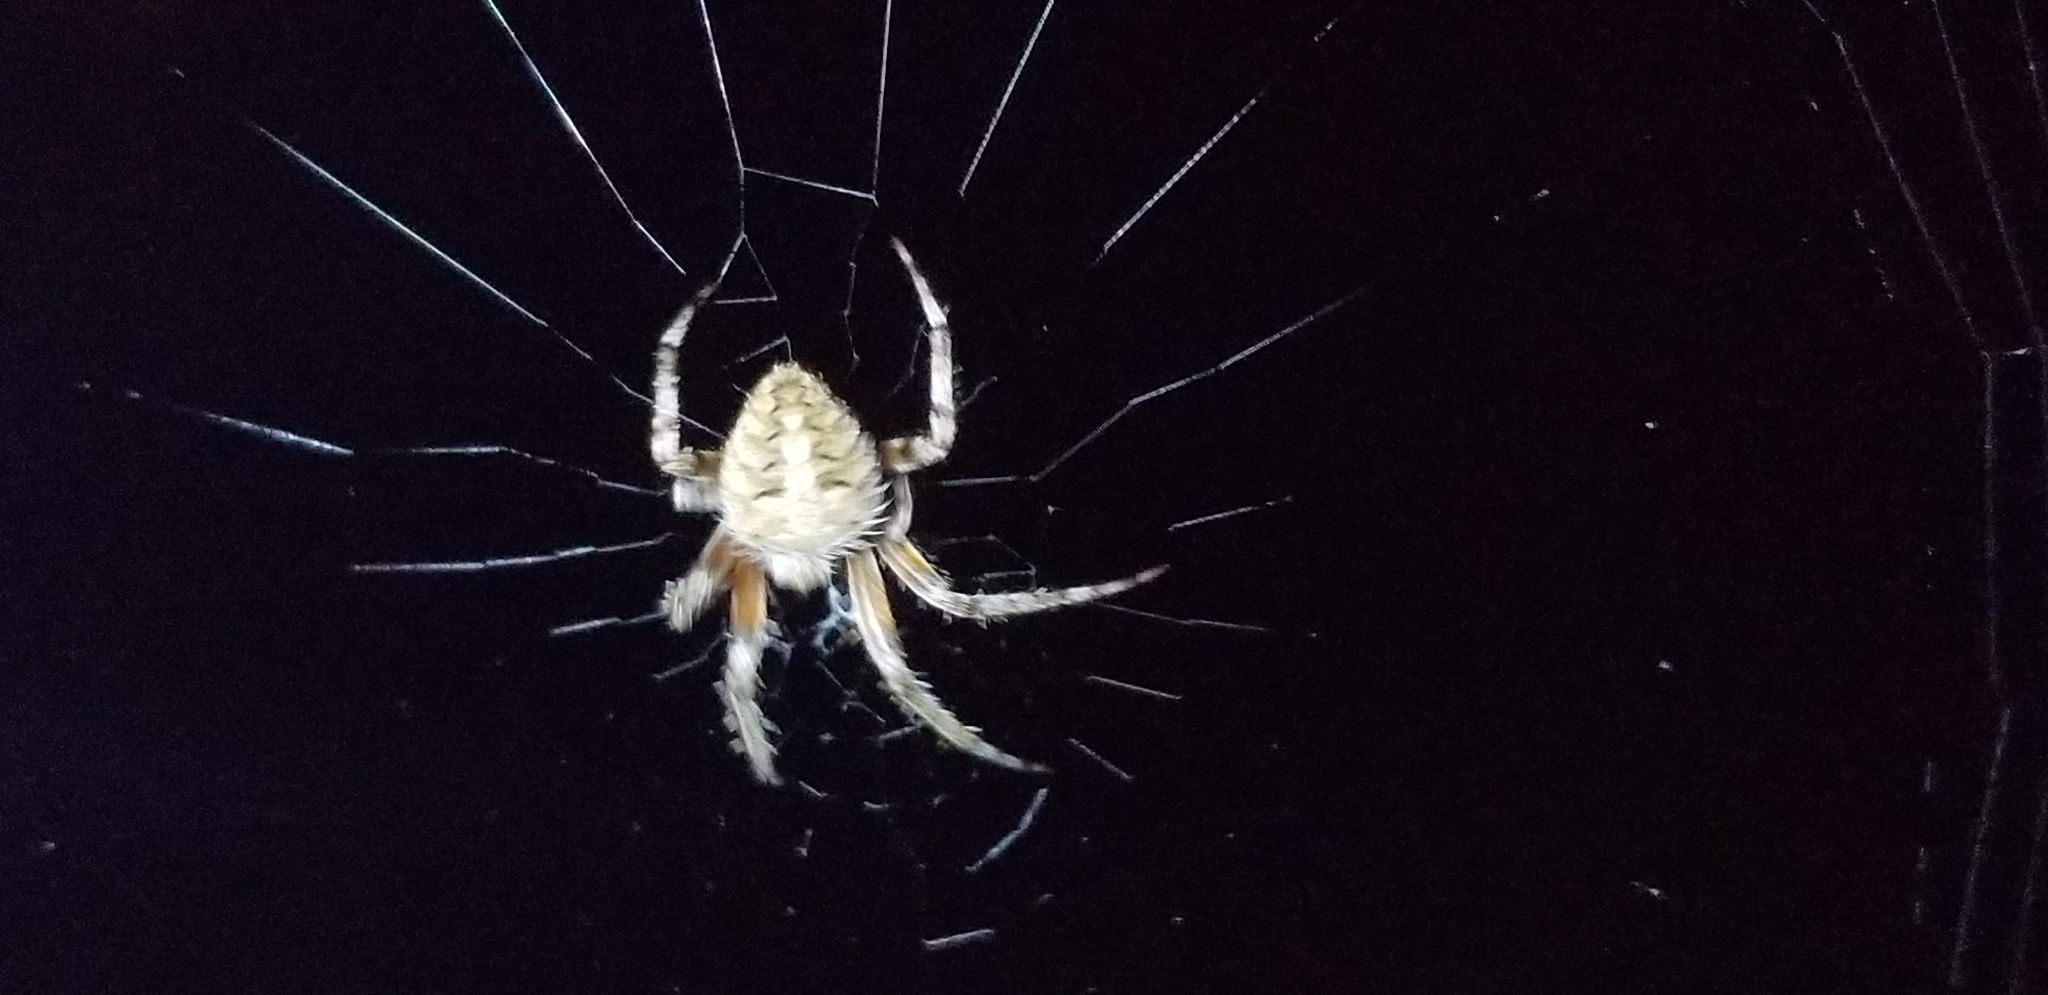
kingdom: Animalia
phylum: Arthropoda
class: Arachnida
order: Araneae
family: Araneidae
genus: Neoscona
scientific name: Neoscona crucifera
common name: Spotted orbweaver
